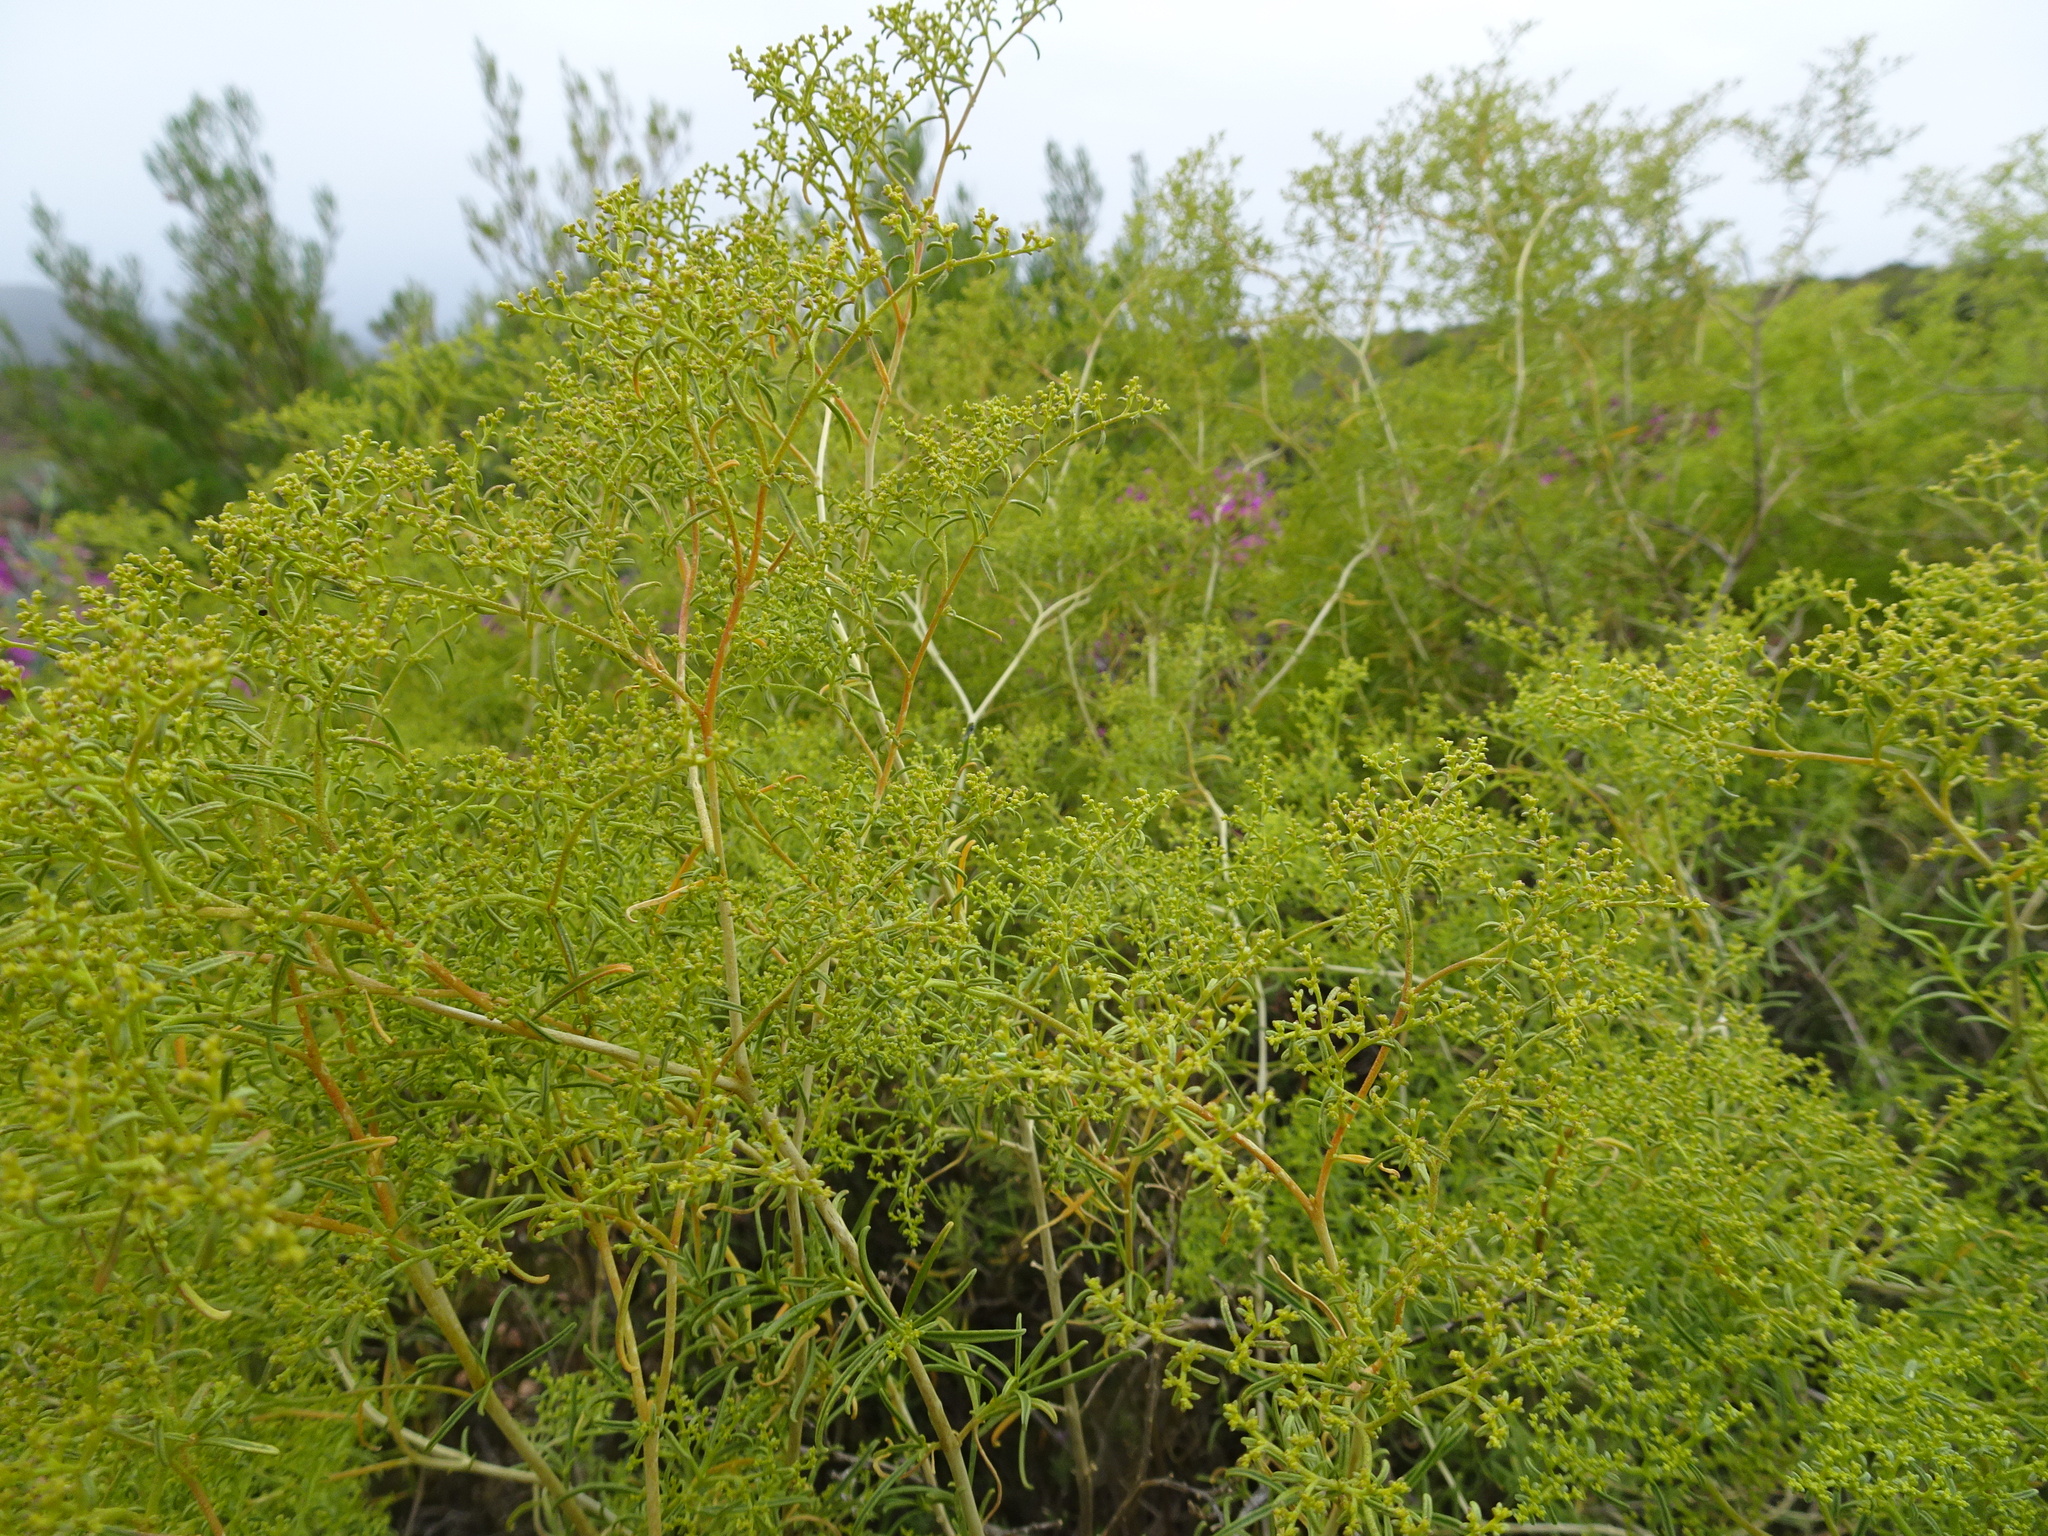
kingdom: Plantae
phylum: Tracheophyta
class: Magnoliopsida
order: Caryophyllales
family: Aizoaceae
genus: Aizoon
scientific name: Aizoon africanum
